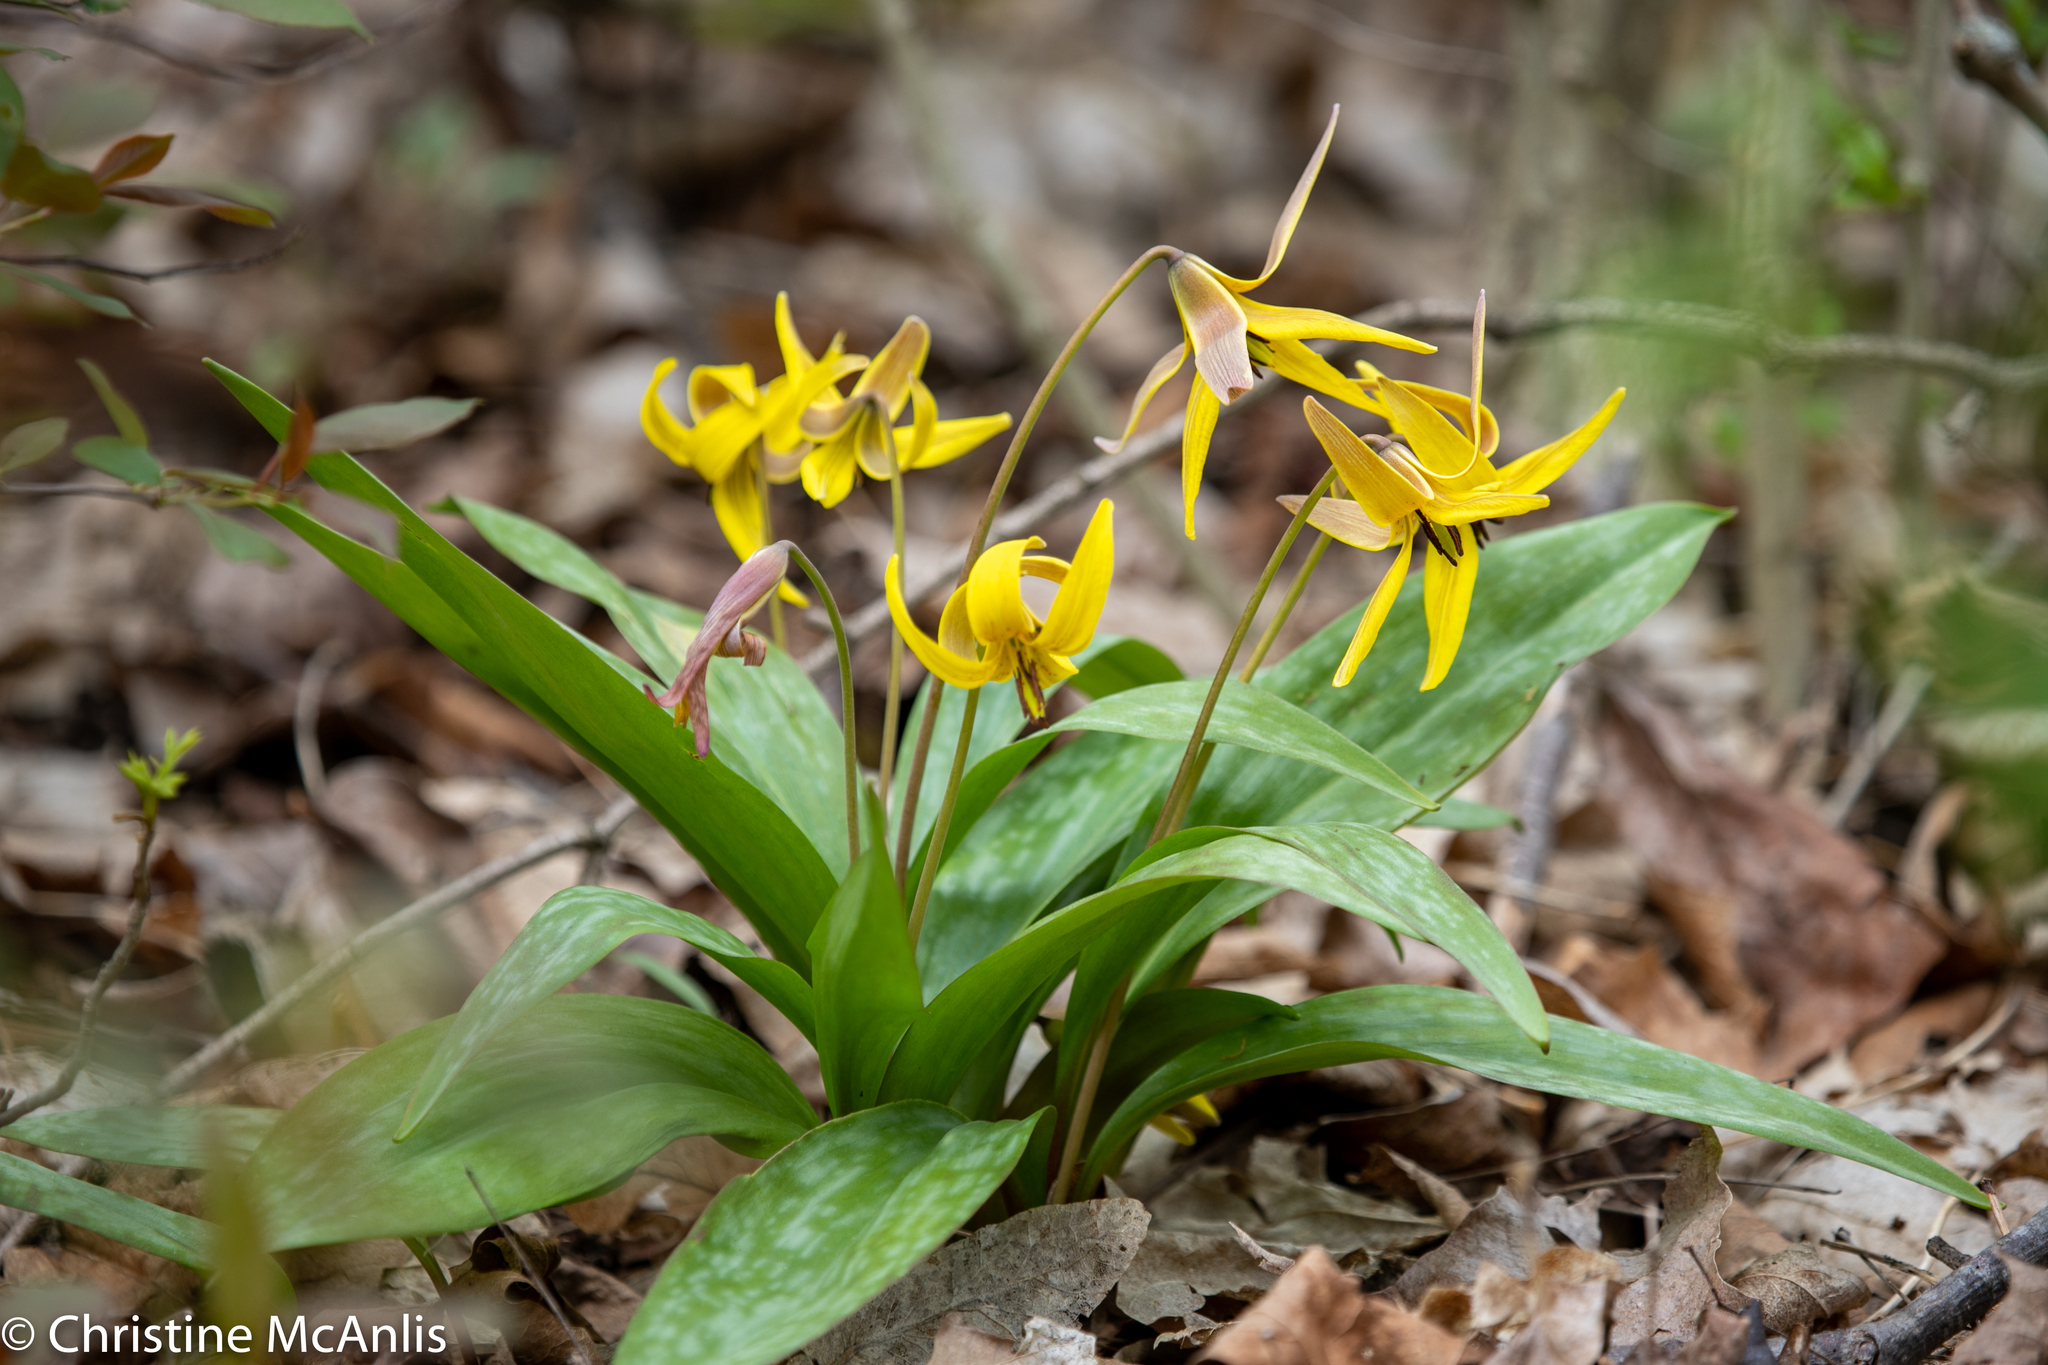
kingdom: Plantae
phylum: Tracheophyta
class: Liliopsida
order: Liliales
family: Liliaceae
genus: Erythronium
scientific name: Erythronium americanum
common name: Yellow adder's-tongue
